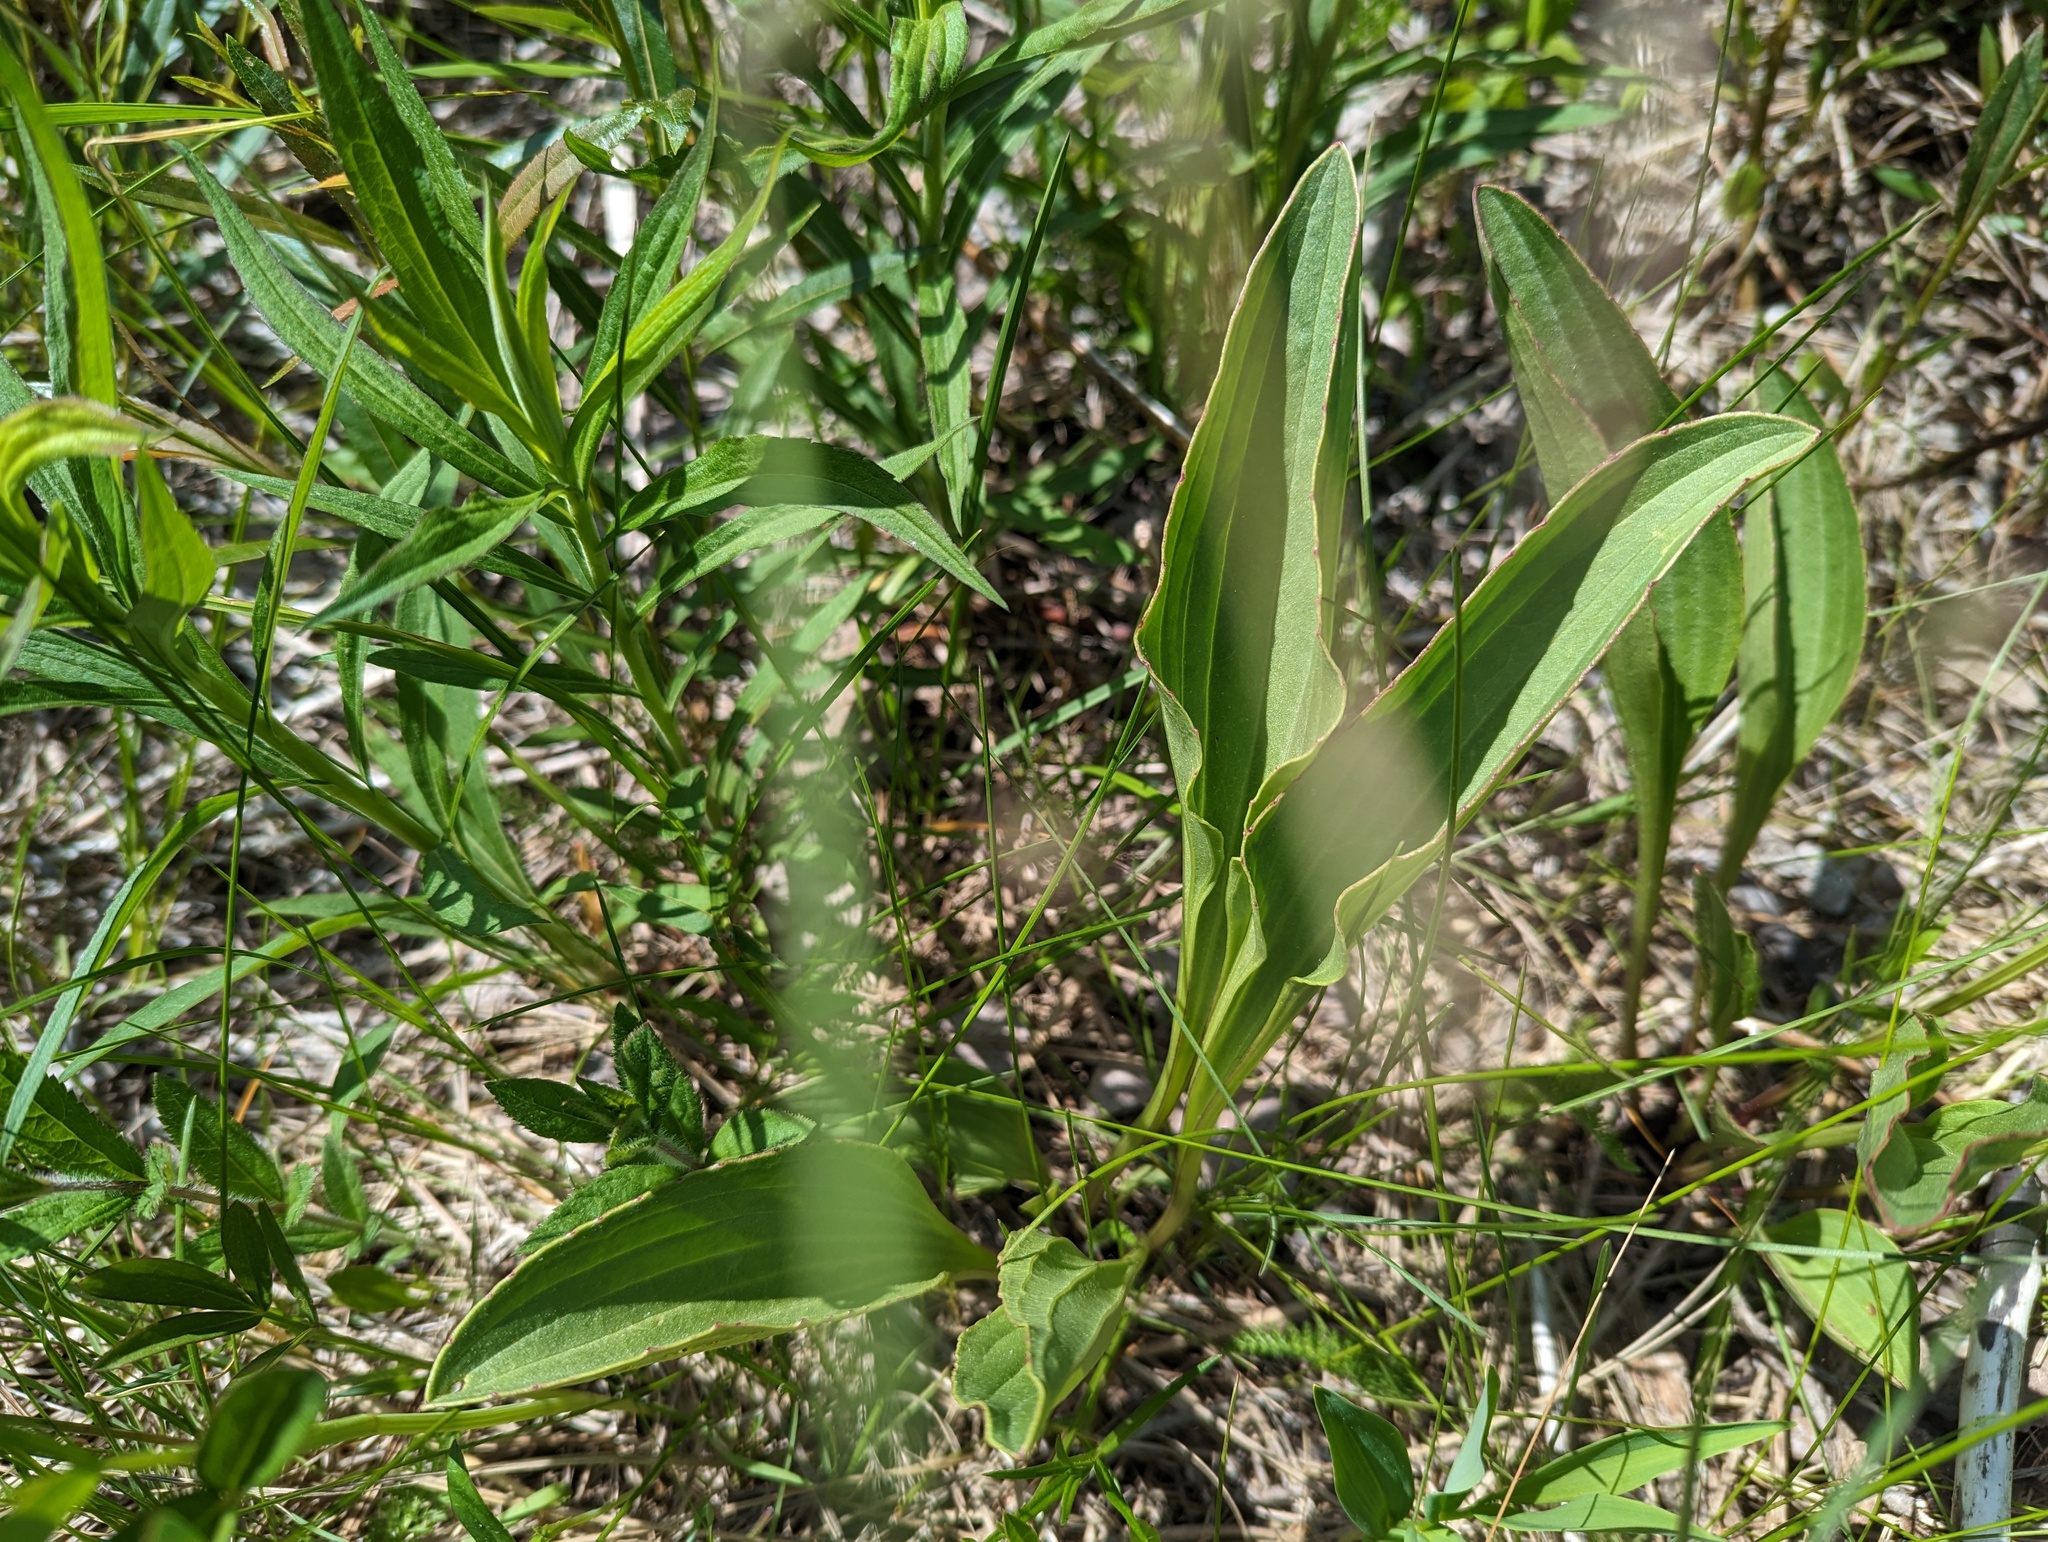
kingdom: Plantae
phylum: Tracheophyta
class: Magnoliopsida
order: Asterales
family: Asteraceae
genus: Arnoglossum
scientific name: Arnoglossum plantagineum
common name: Groove-stemmed indian-plantain
